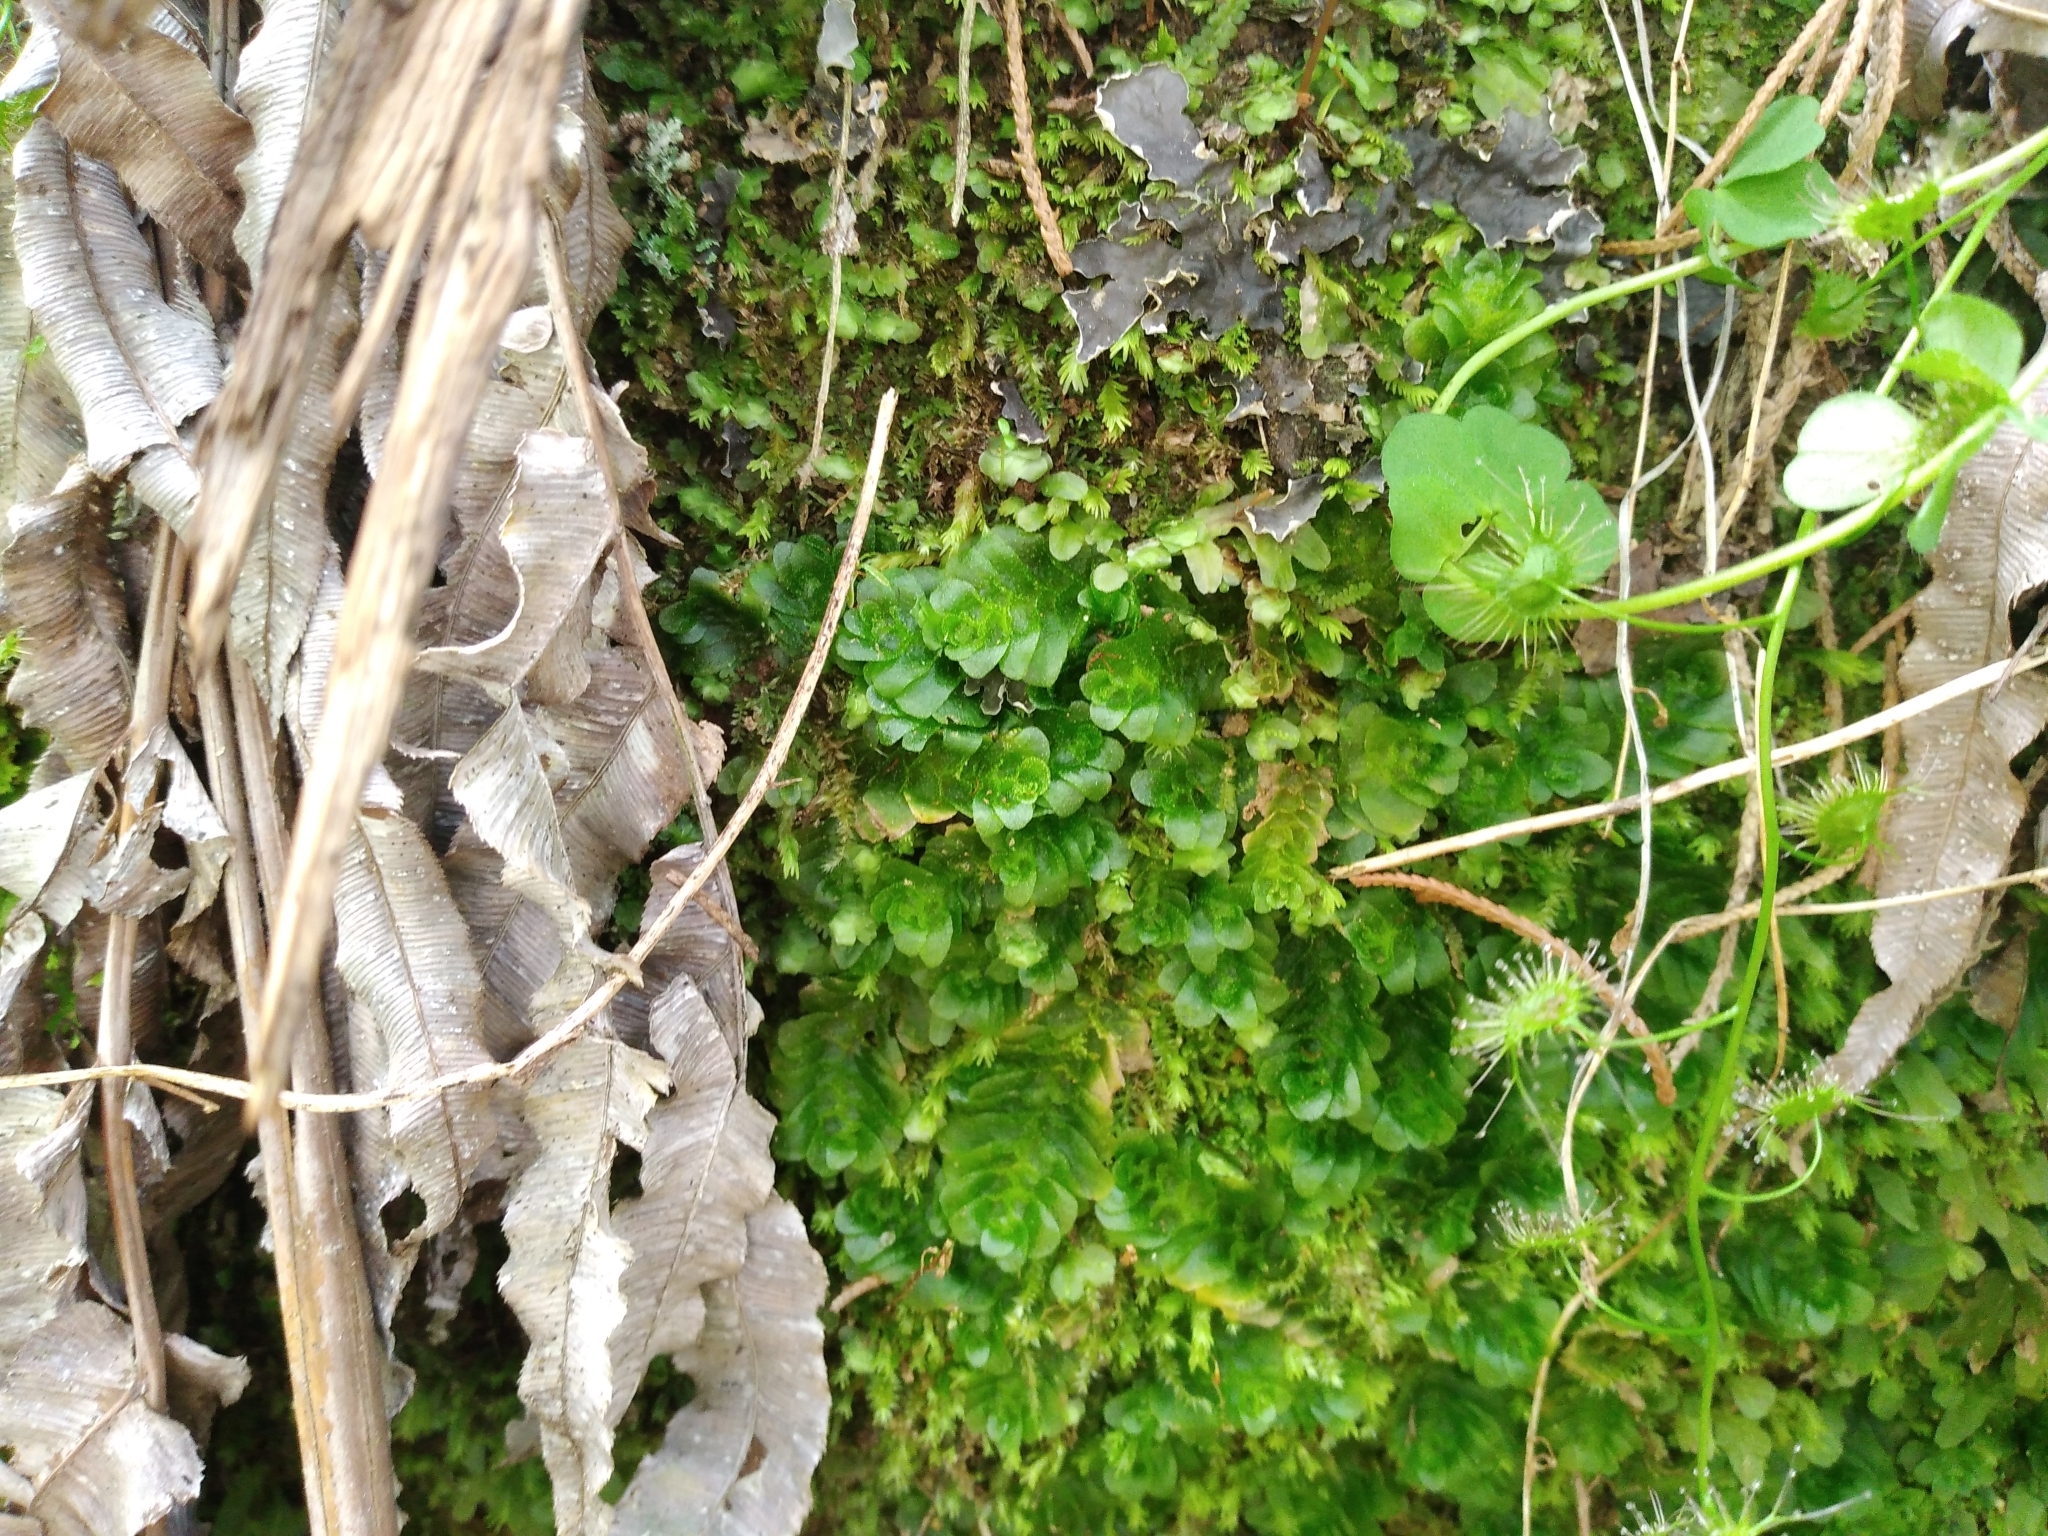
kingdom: Plantae
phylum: Marchantiophyta
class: Haplomitriopsida
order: Treubiales
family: Treubiaceae
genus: Treubia
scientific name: Treubia lacunosa
